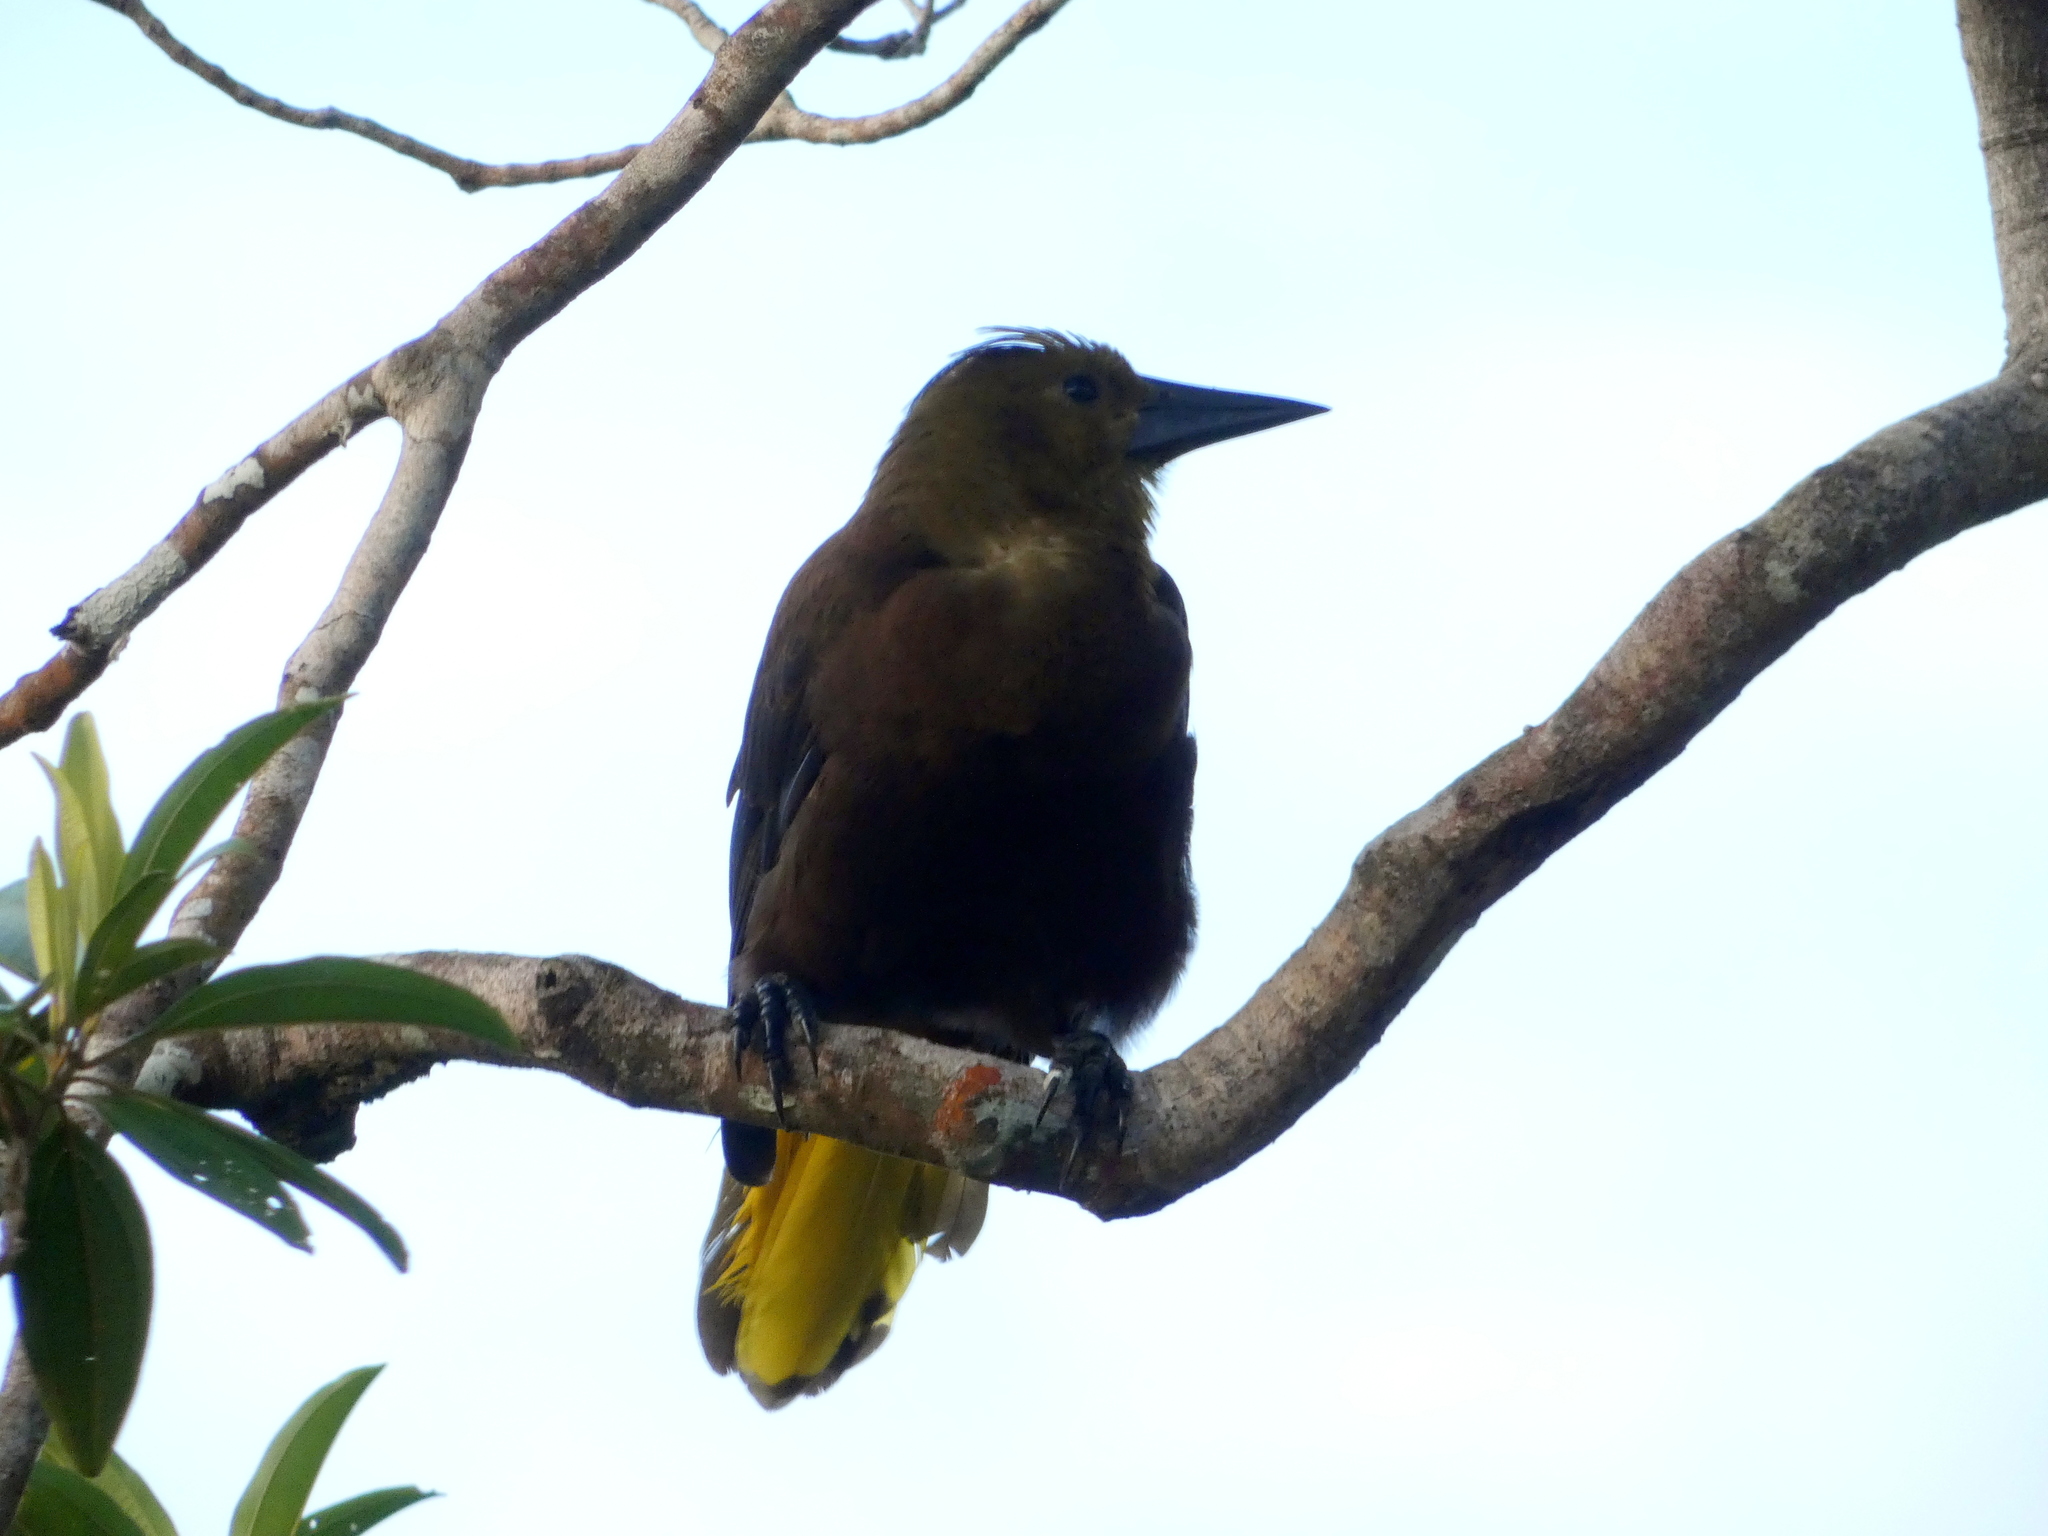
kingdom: Animalia
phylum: Chordata
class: Aves
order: Passeriformes
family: Icteridae
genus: Psarocolius
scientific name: Psarocolius angustifrons
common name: Russet-backed oropendola
